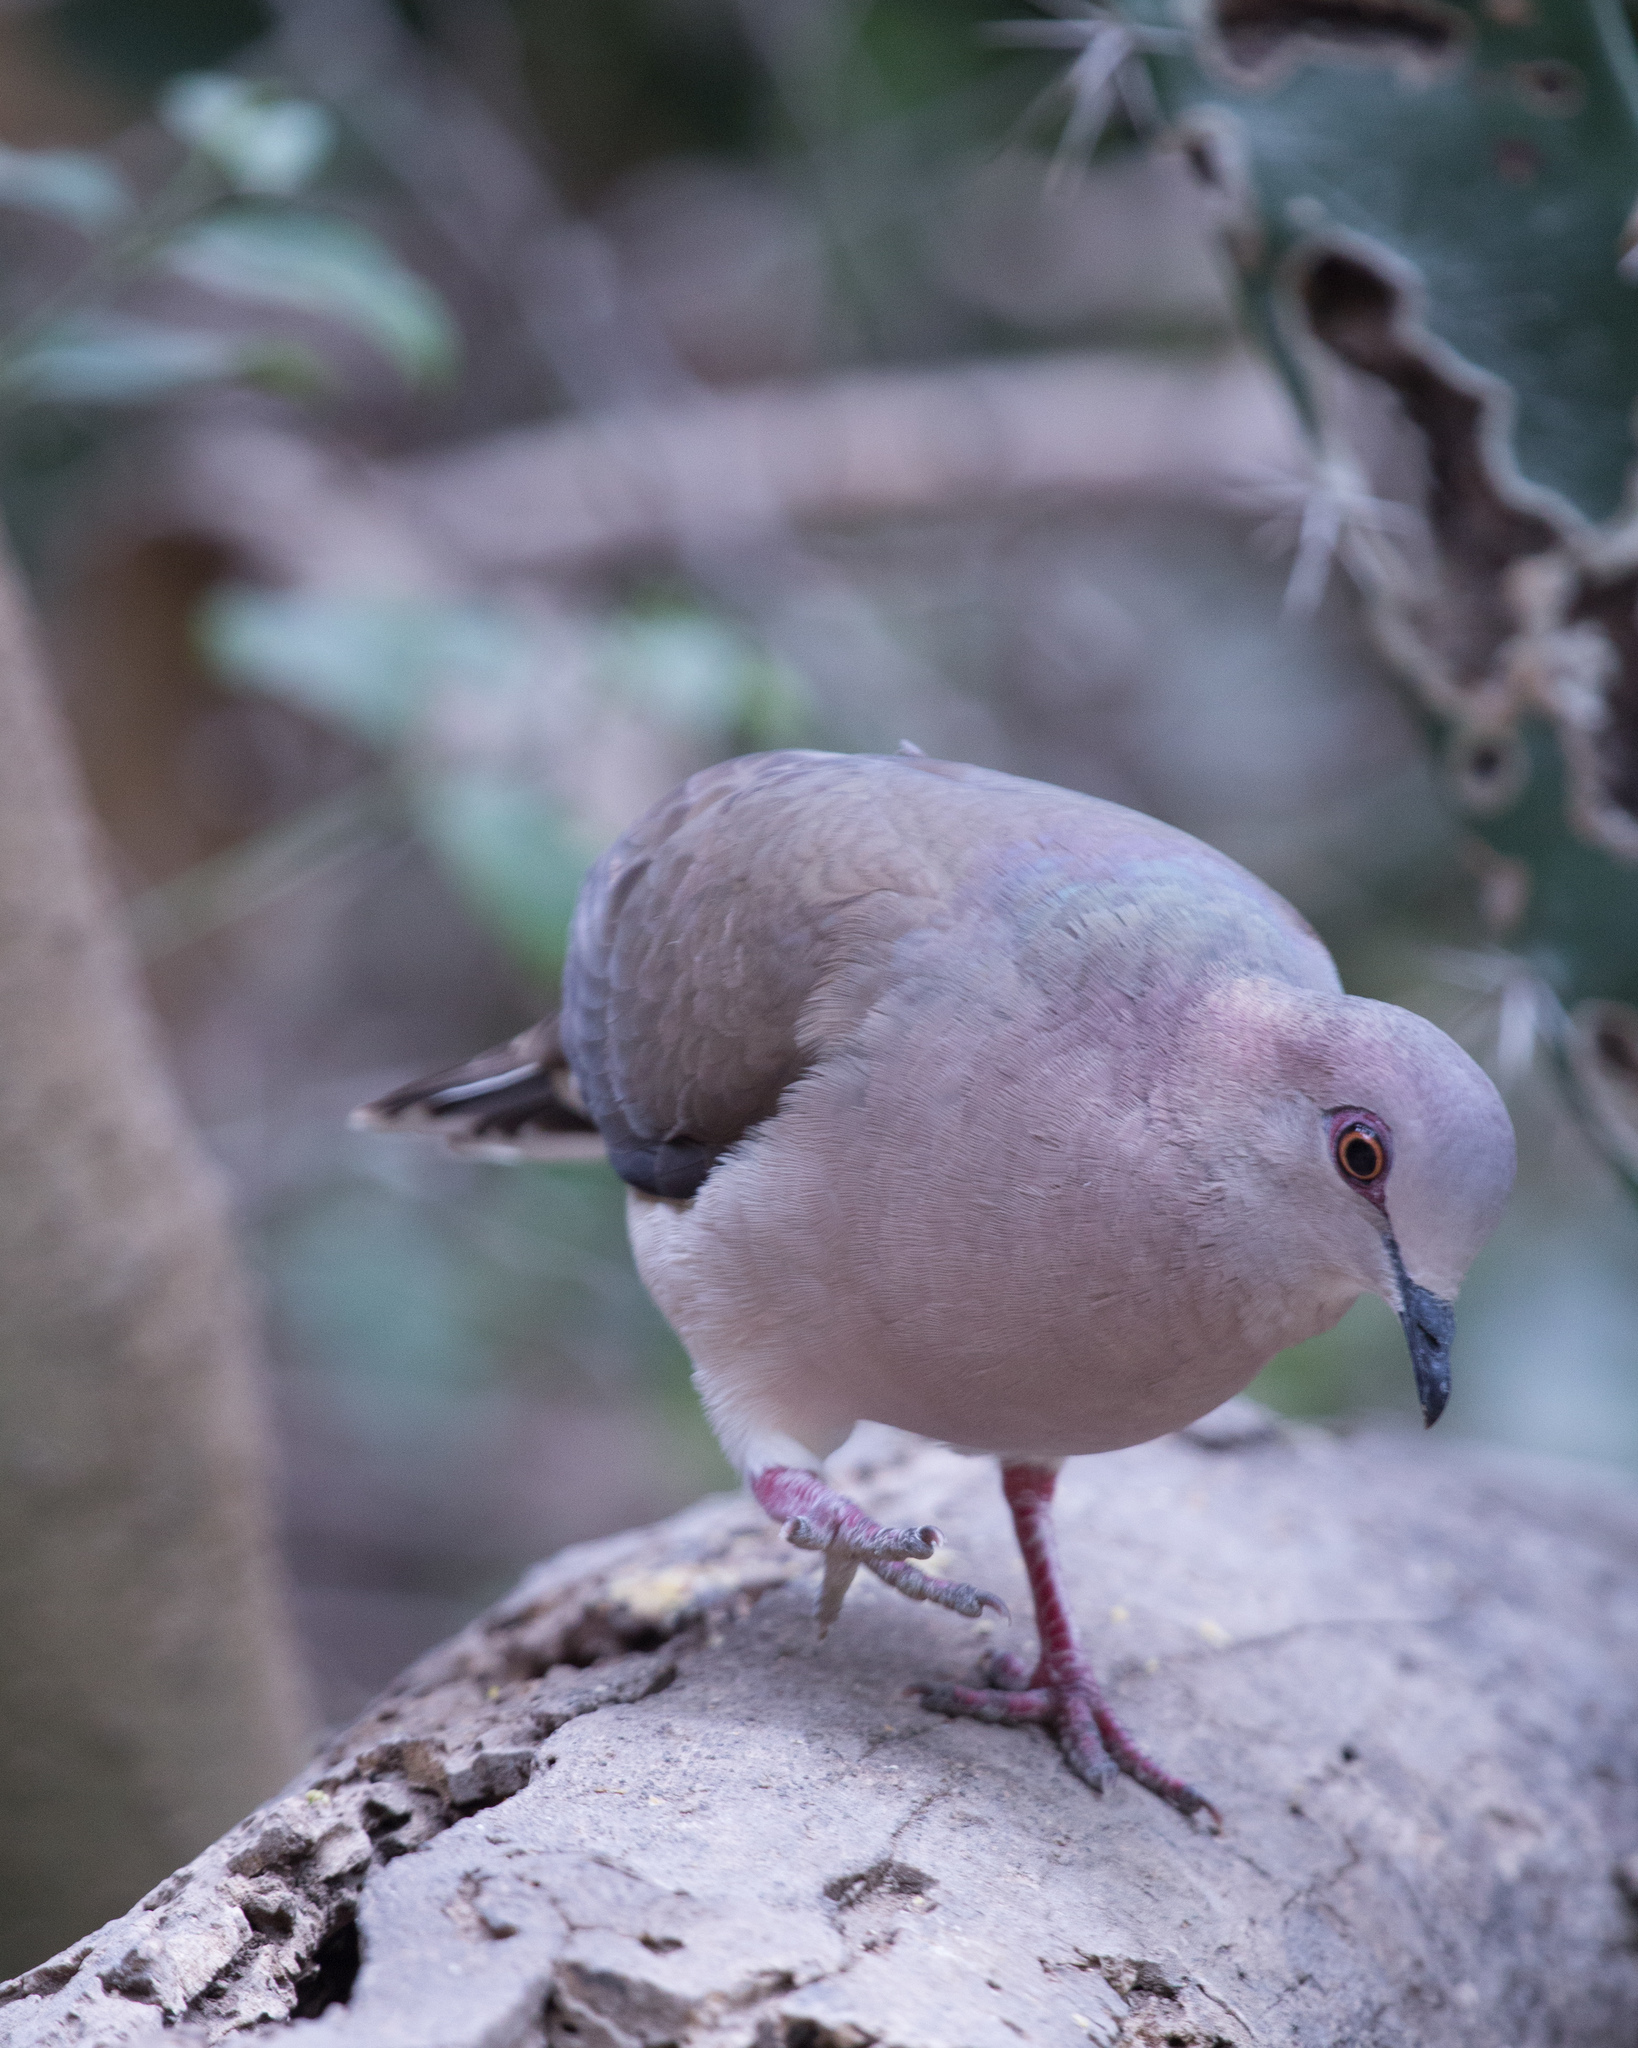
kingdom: Animalia
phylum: Chordata
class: Aves
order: Columbiformes
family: Columbidae
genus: Leptotila
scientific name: Leptotila verreauxi
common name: White-tipped dove
